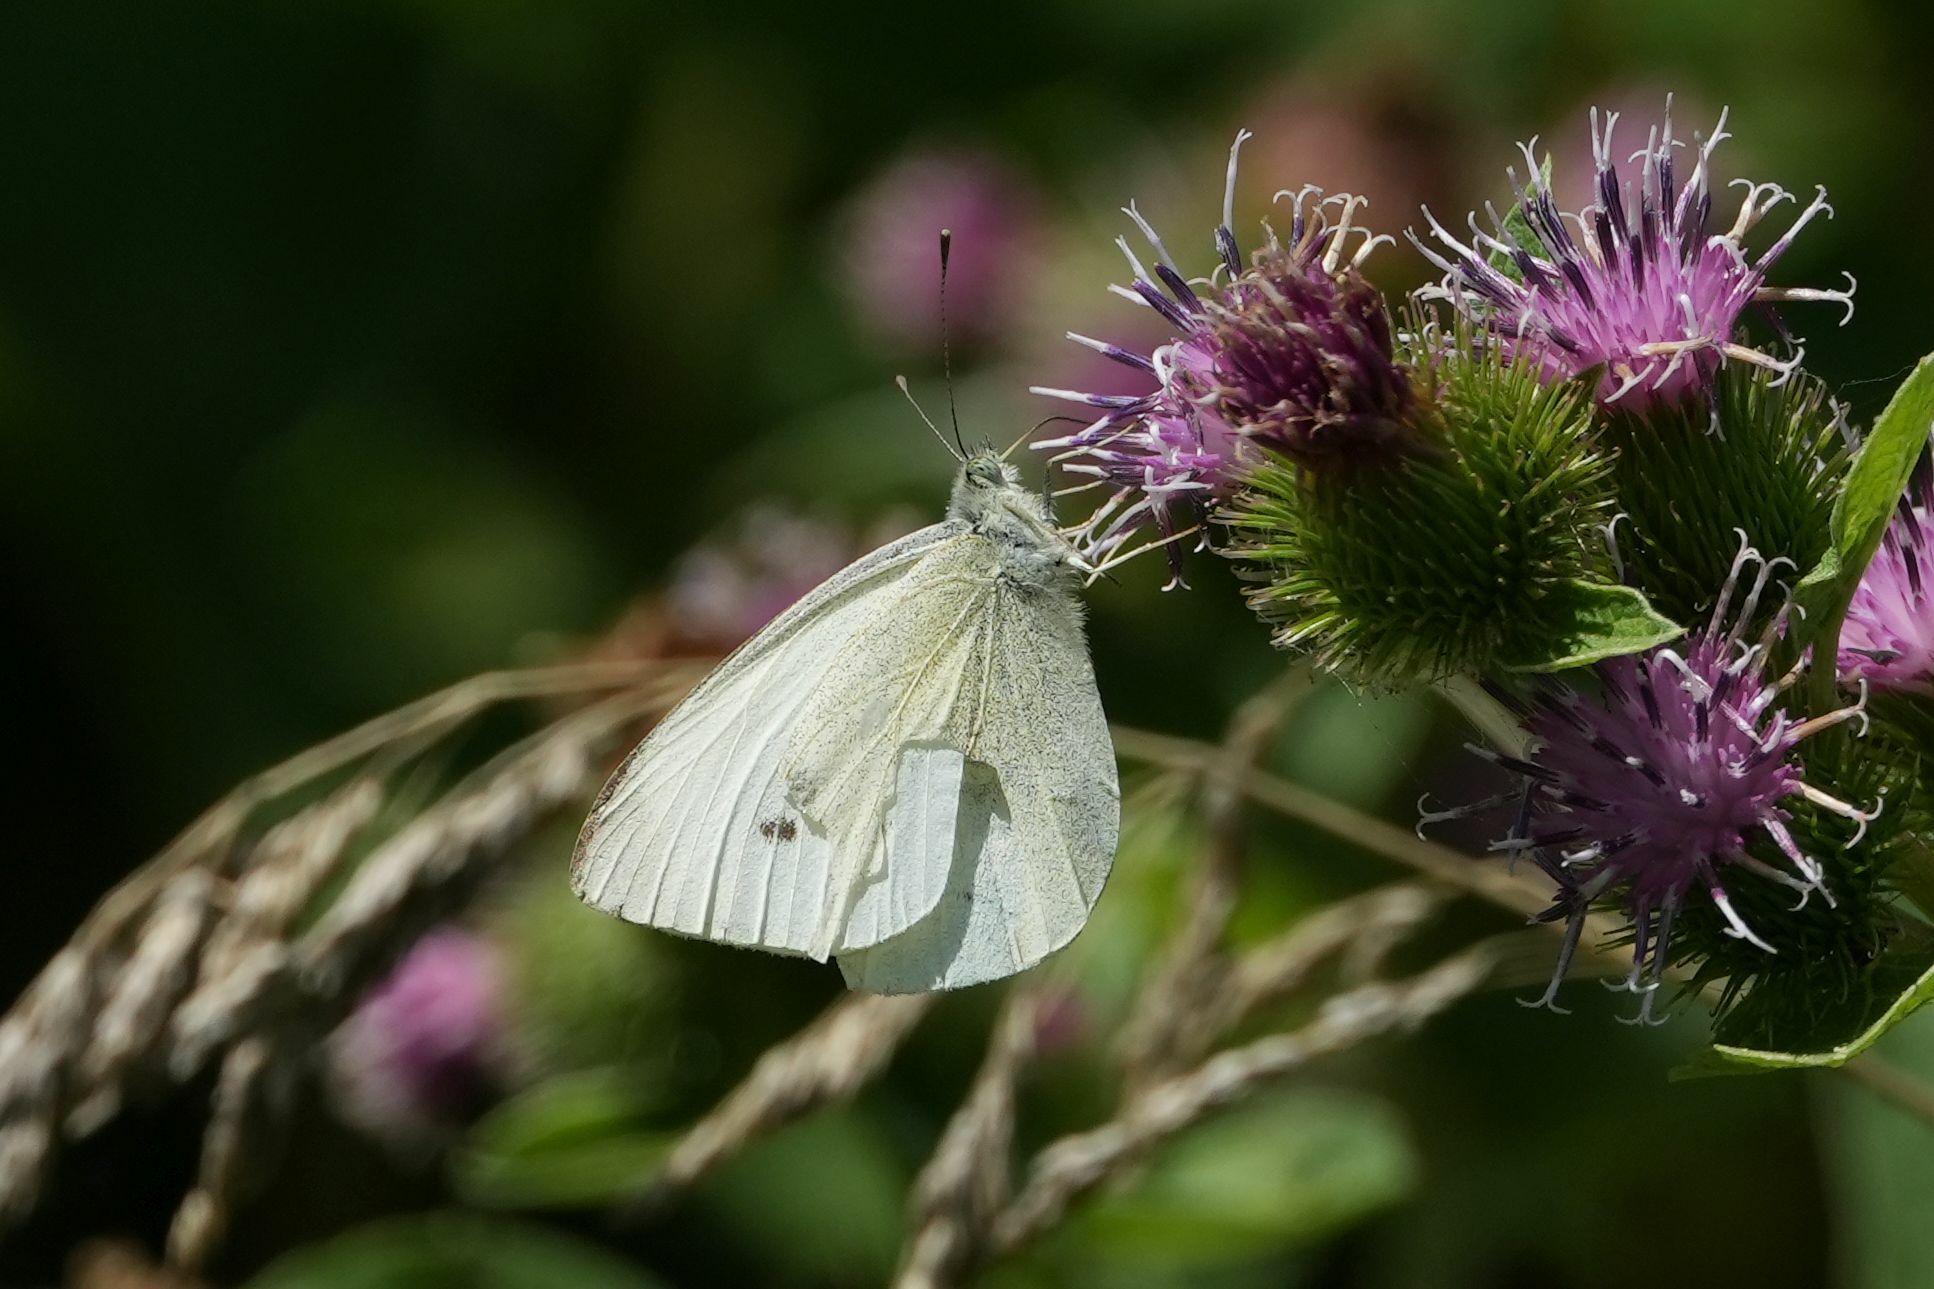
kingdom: Animalia
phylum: Arthropoda
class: Insecta
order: Lepidoptera
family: Pieridae
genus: Pieris
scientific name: Pieris rapae
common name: Small white
